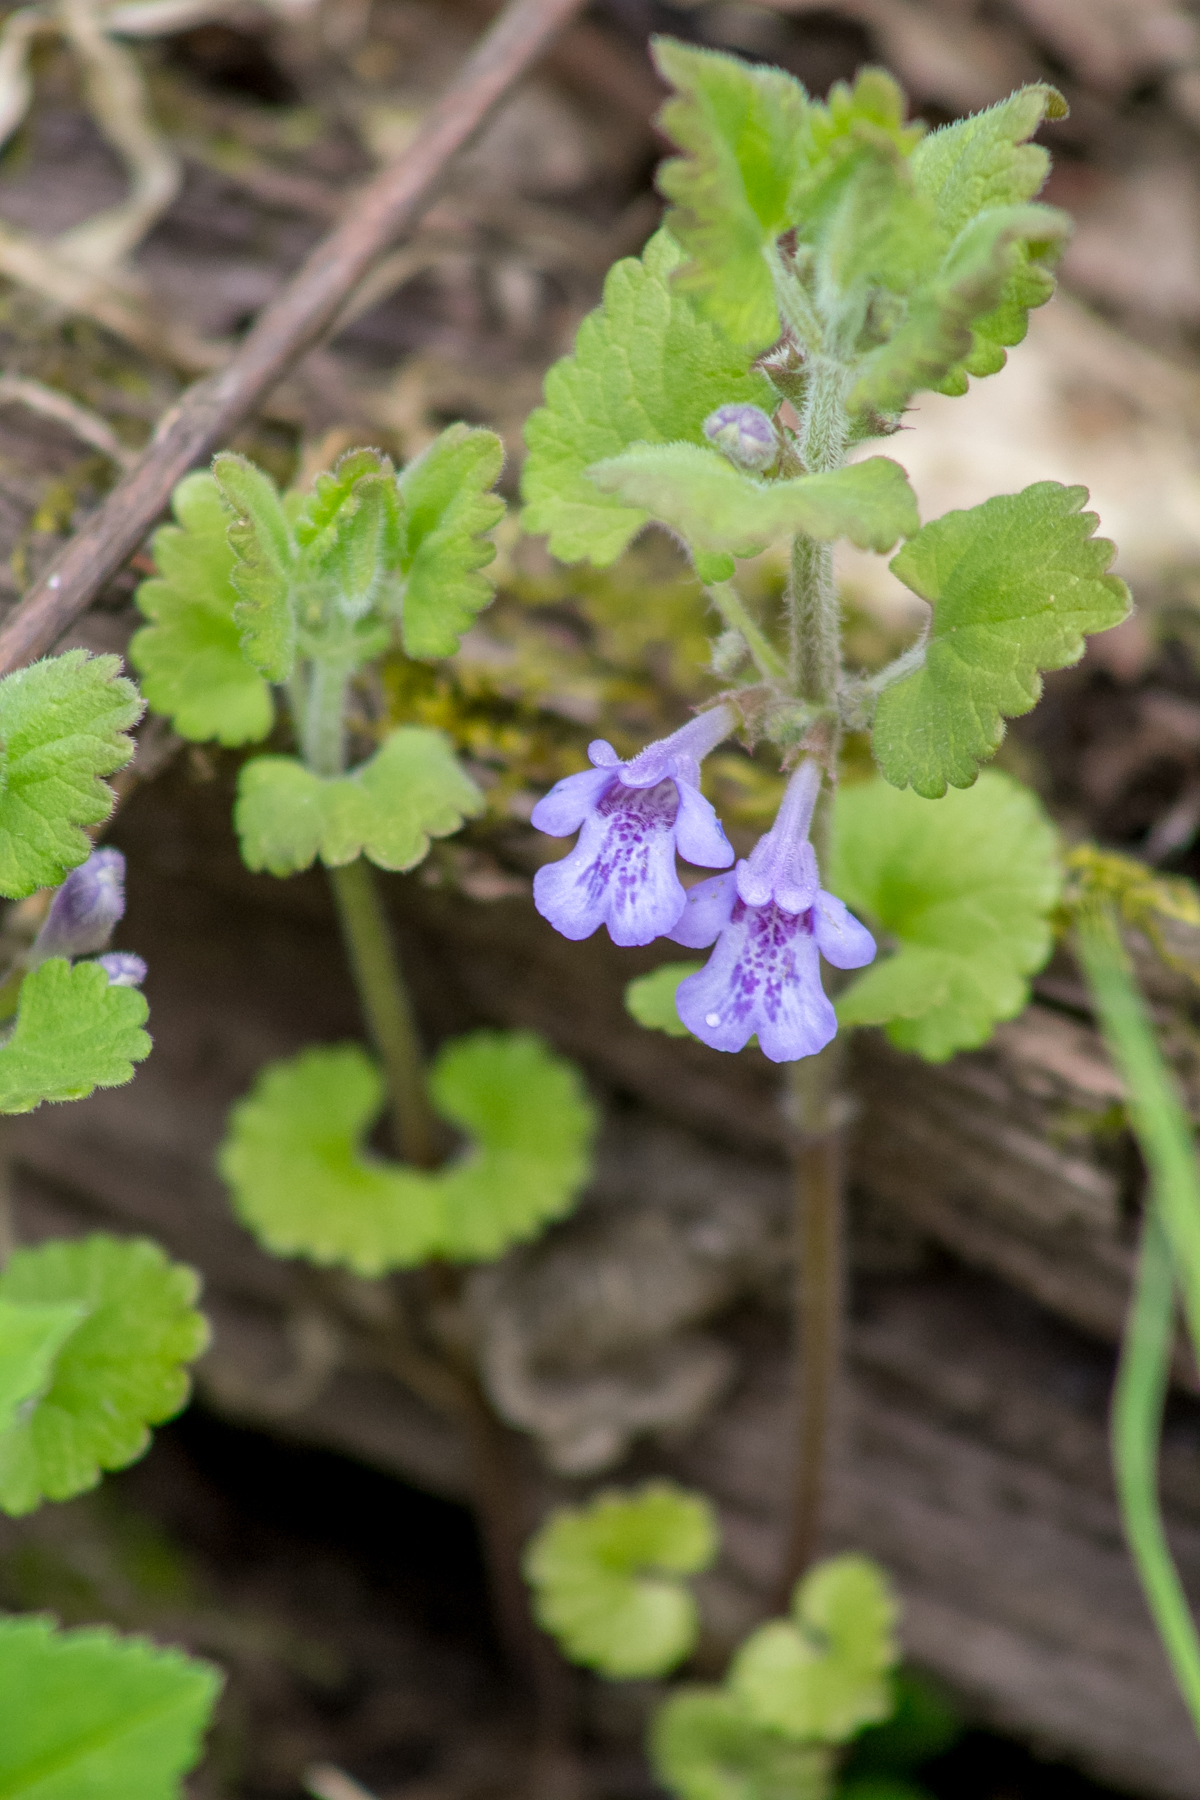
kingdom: Plantae
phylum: Tracheophyta
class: Magnoliopsida
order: Lamiales
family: Lamiaceae
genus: Glechoma
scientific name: Glechoma hederacea
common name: Ground ivy
